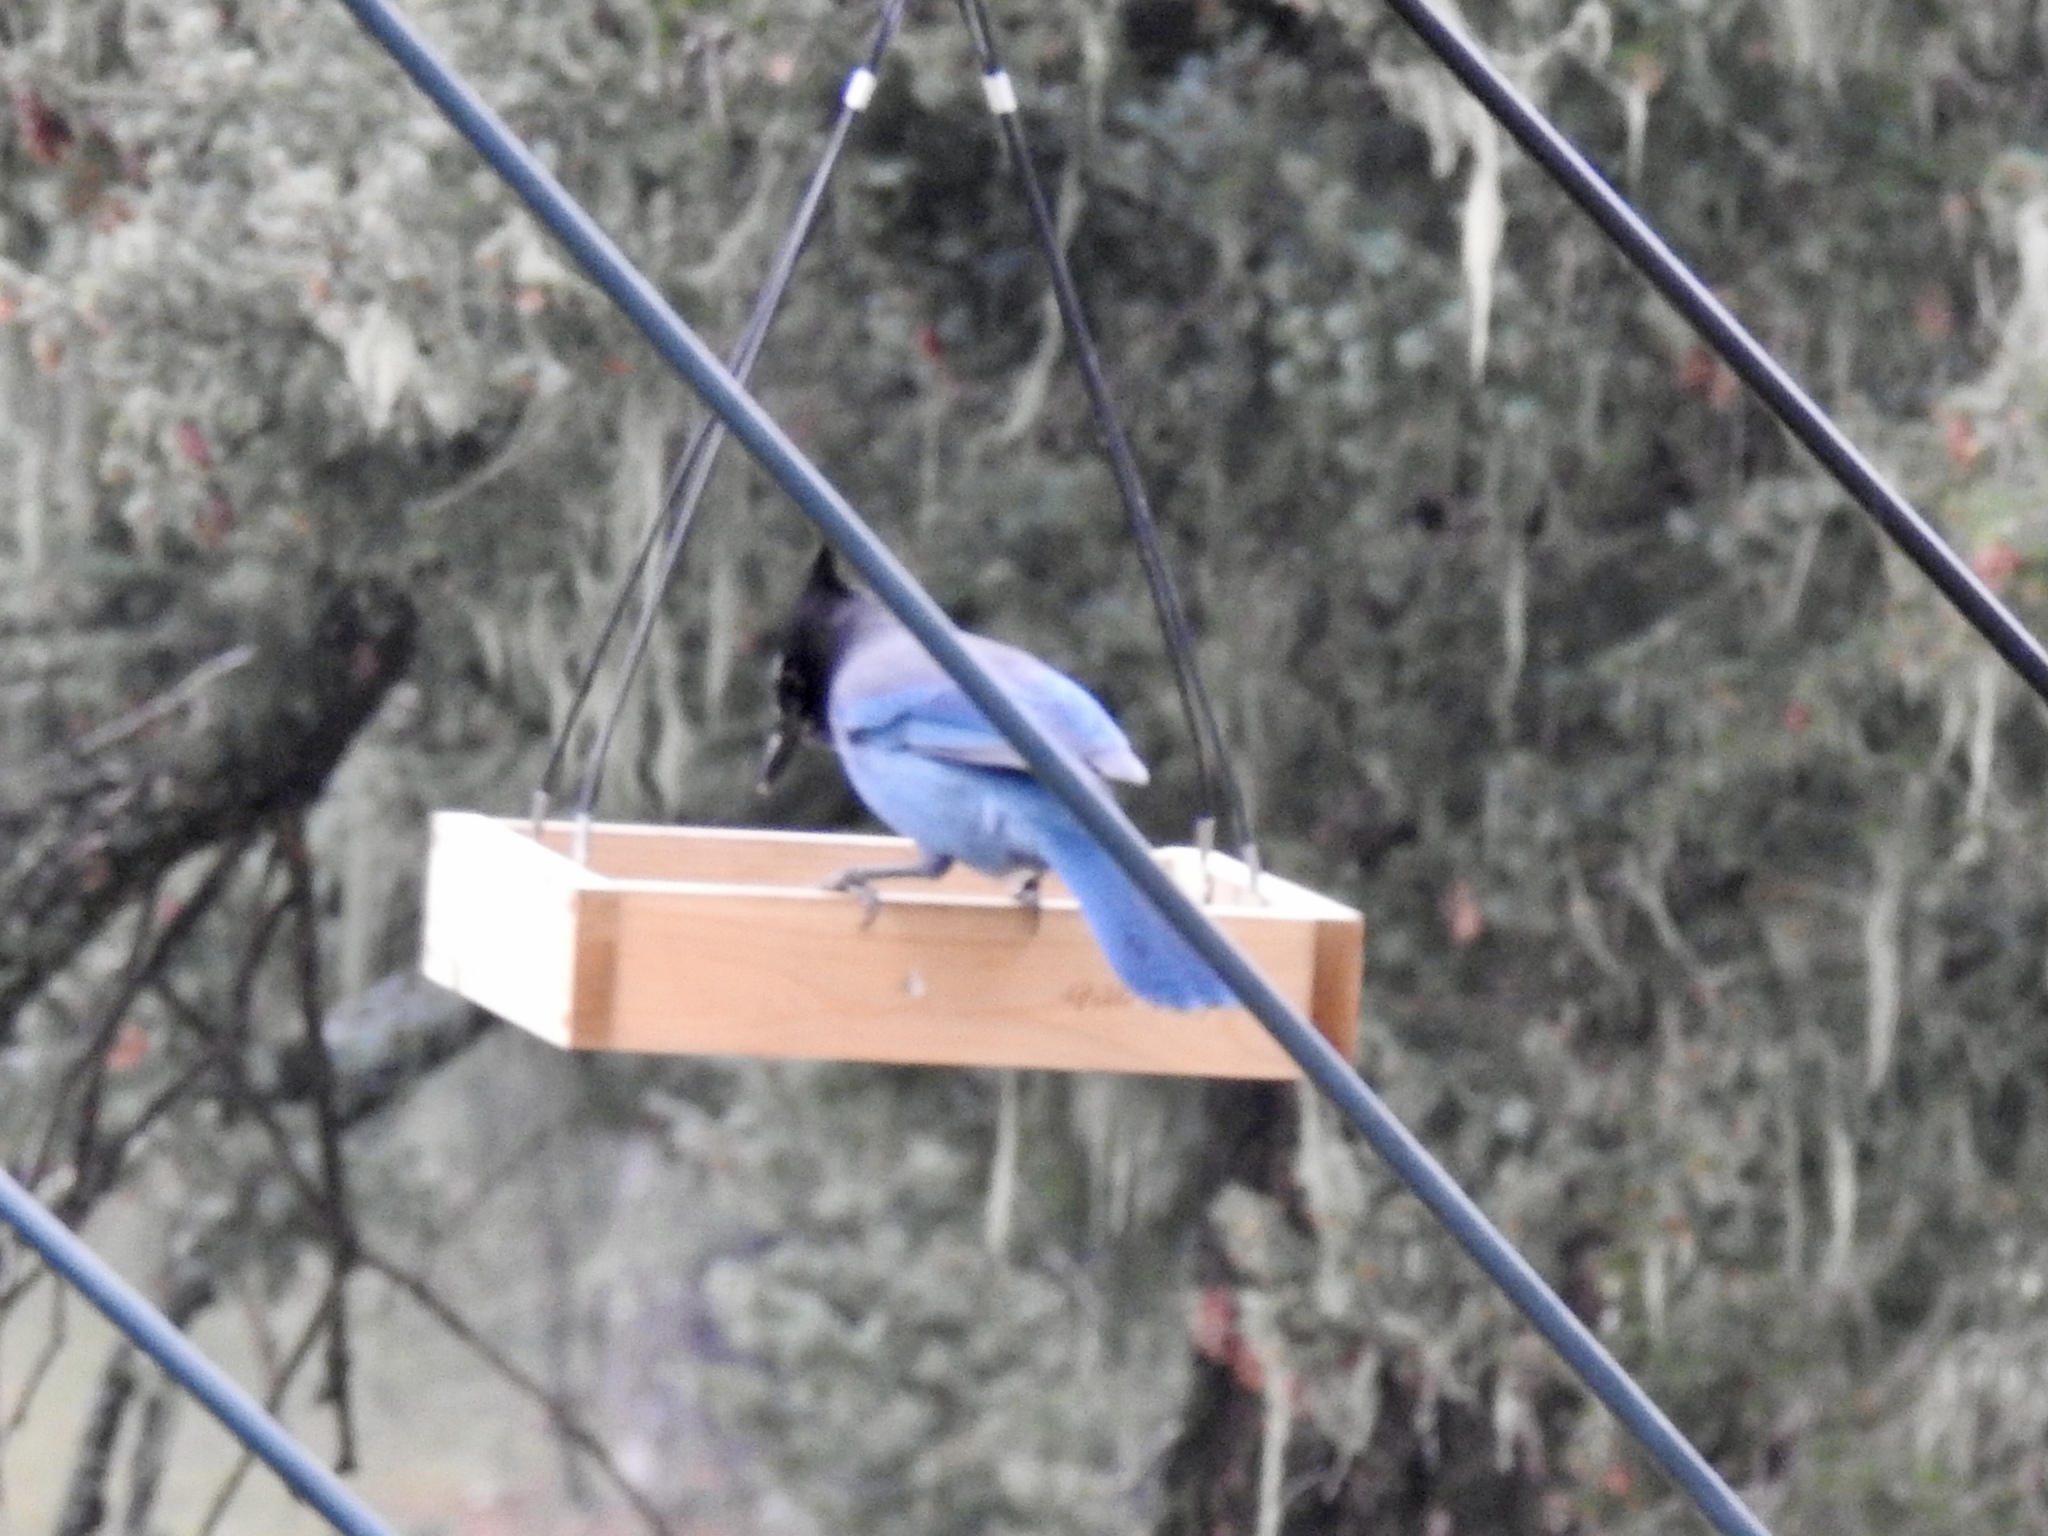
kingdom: Animalia
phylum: Chordata
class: Aves
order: Passeriformes
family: Corvidae
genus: Cyanocitta
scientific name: Cyanocitta stelleri
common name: Steller's jay
